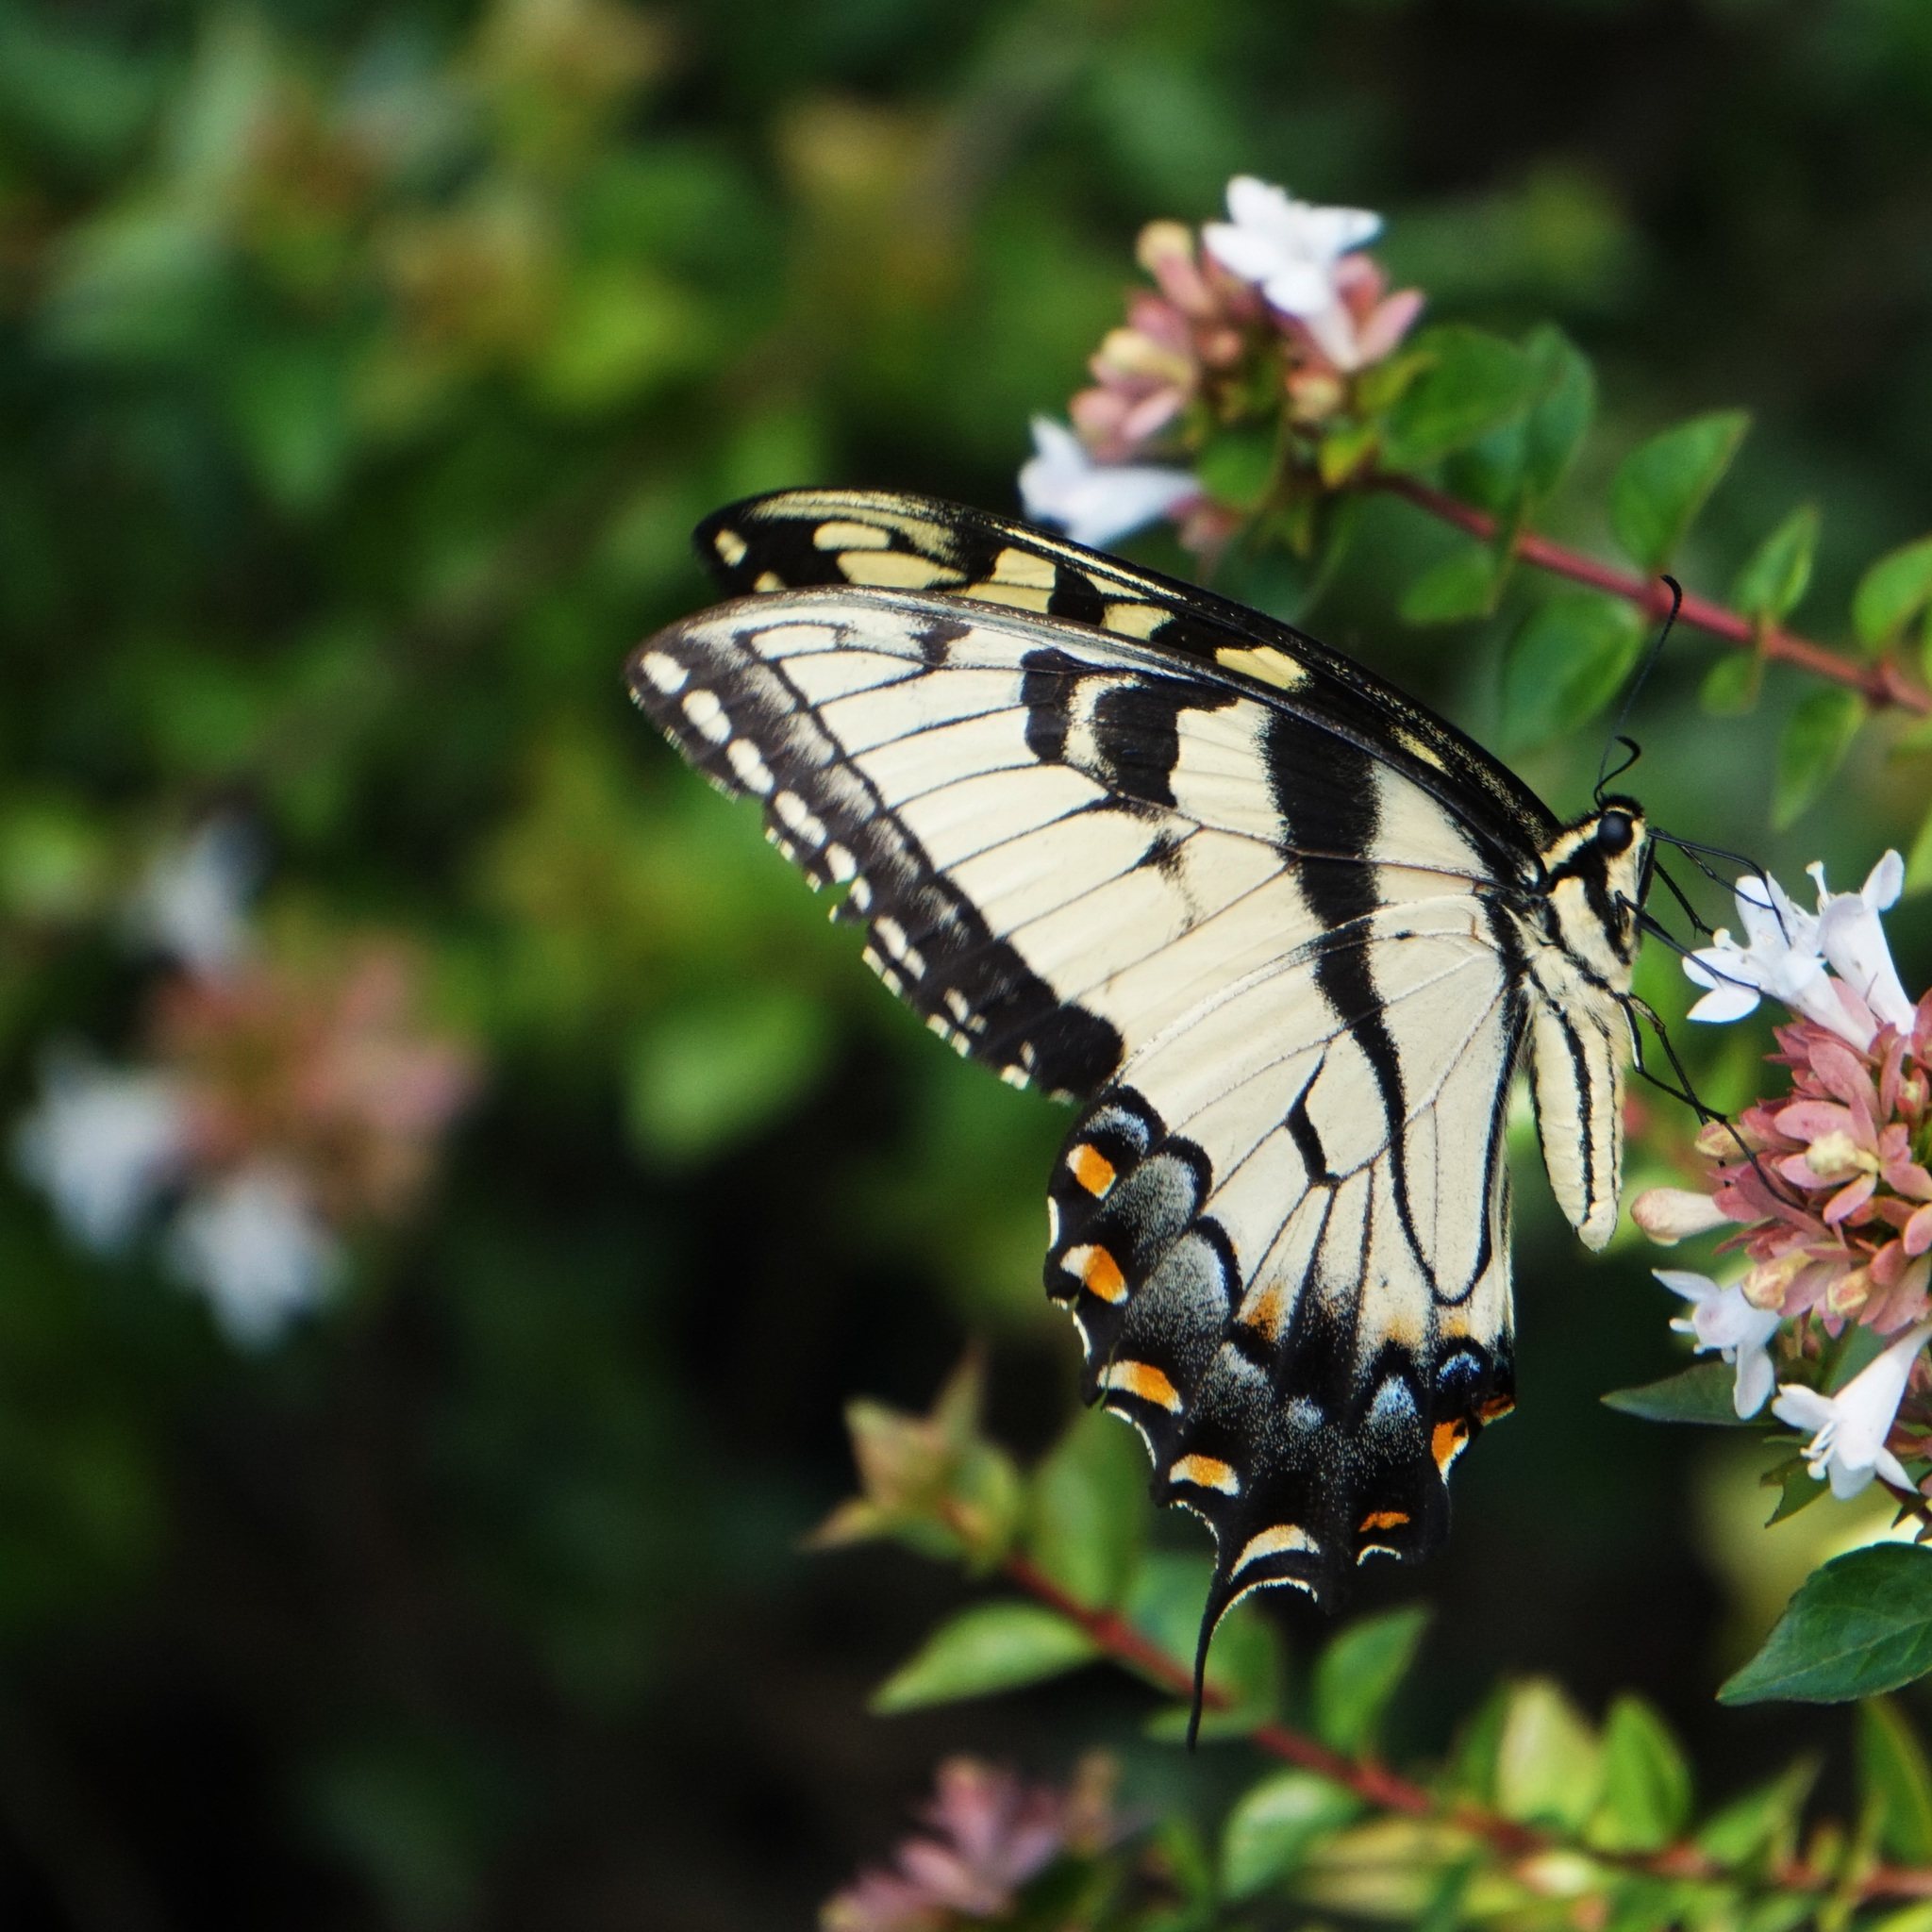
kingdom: Animalia
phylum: Arthropoda
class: Insecta
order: Lepidoptera
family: Papilionidae
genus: Papilio
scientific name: Papilio glaucus
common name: Tiger swallowtail
